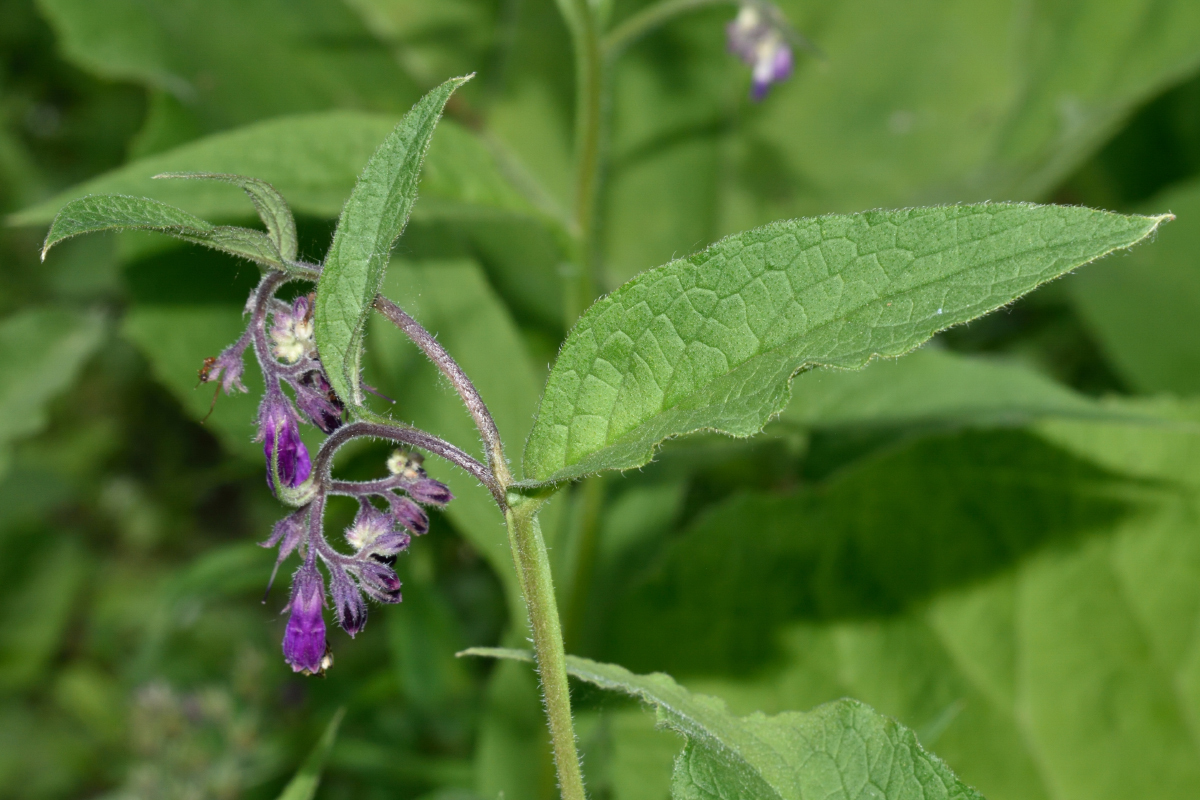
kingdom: Plantae
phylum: Tracheophyta
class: Magnoliopsida
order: Boraginales
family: Boraginaceae
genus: Symphytum
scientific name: Symphytum officinale
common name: Common comfrey
